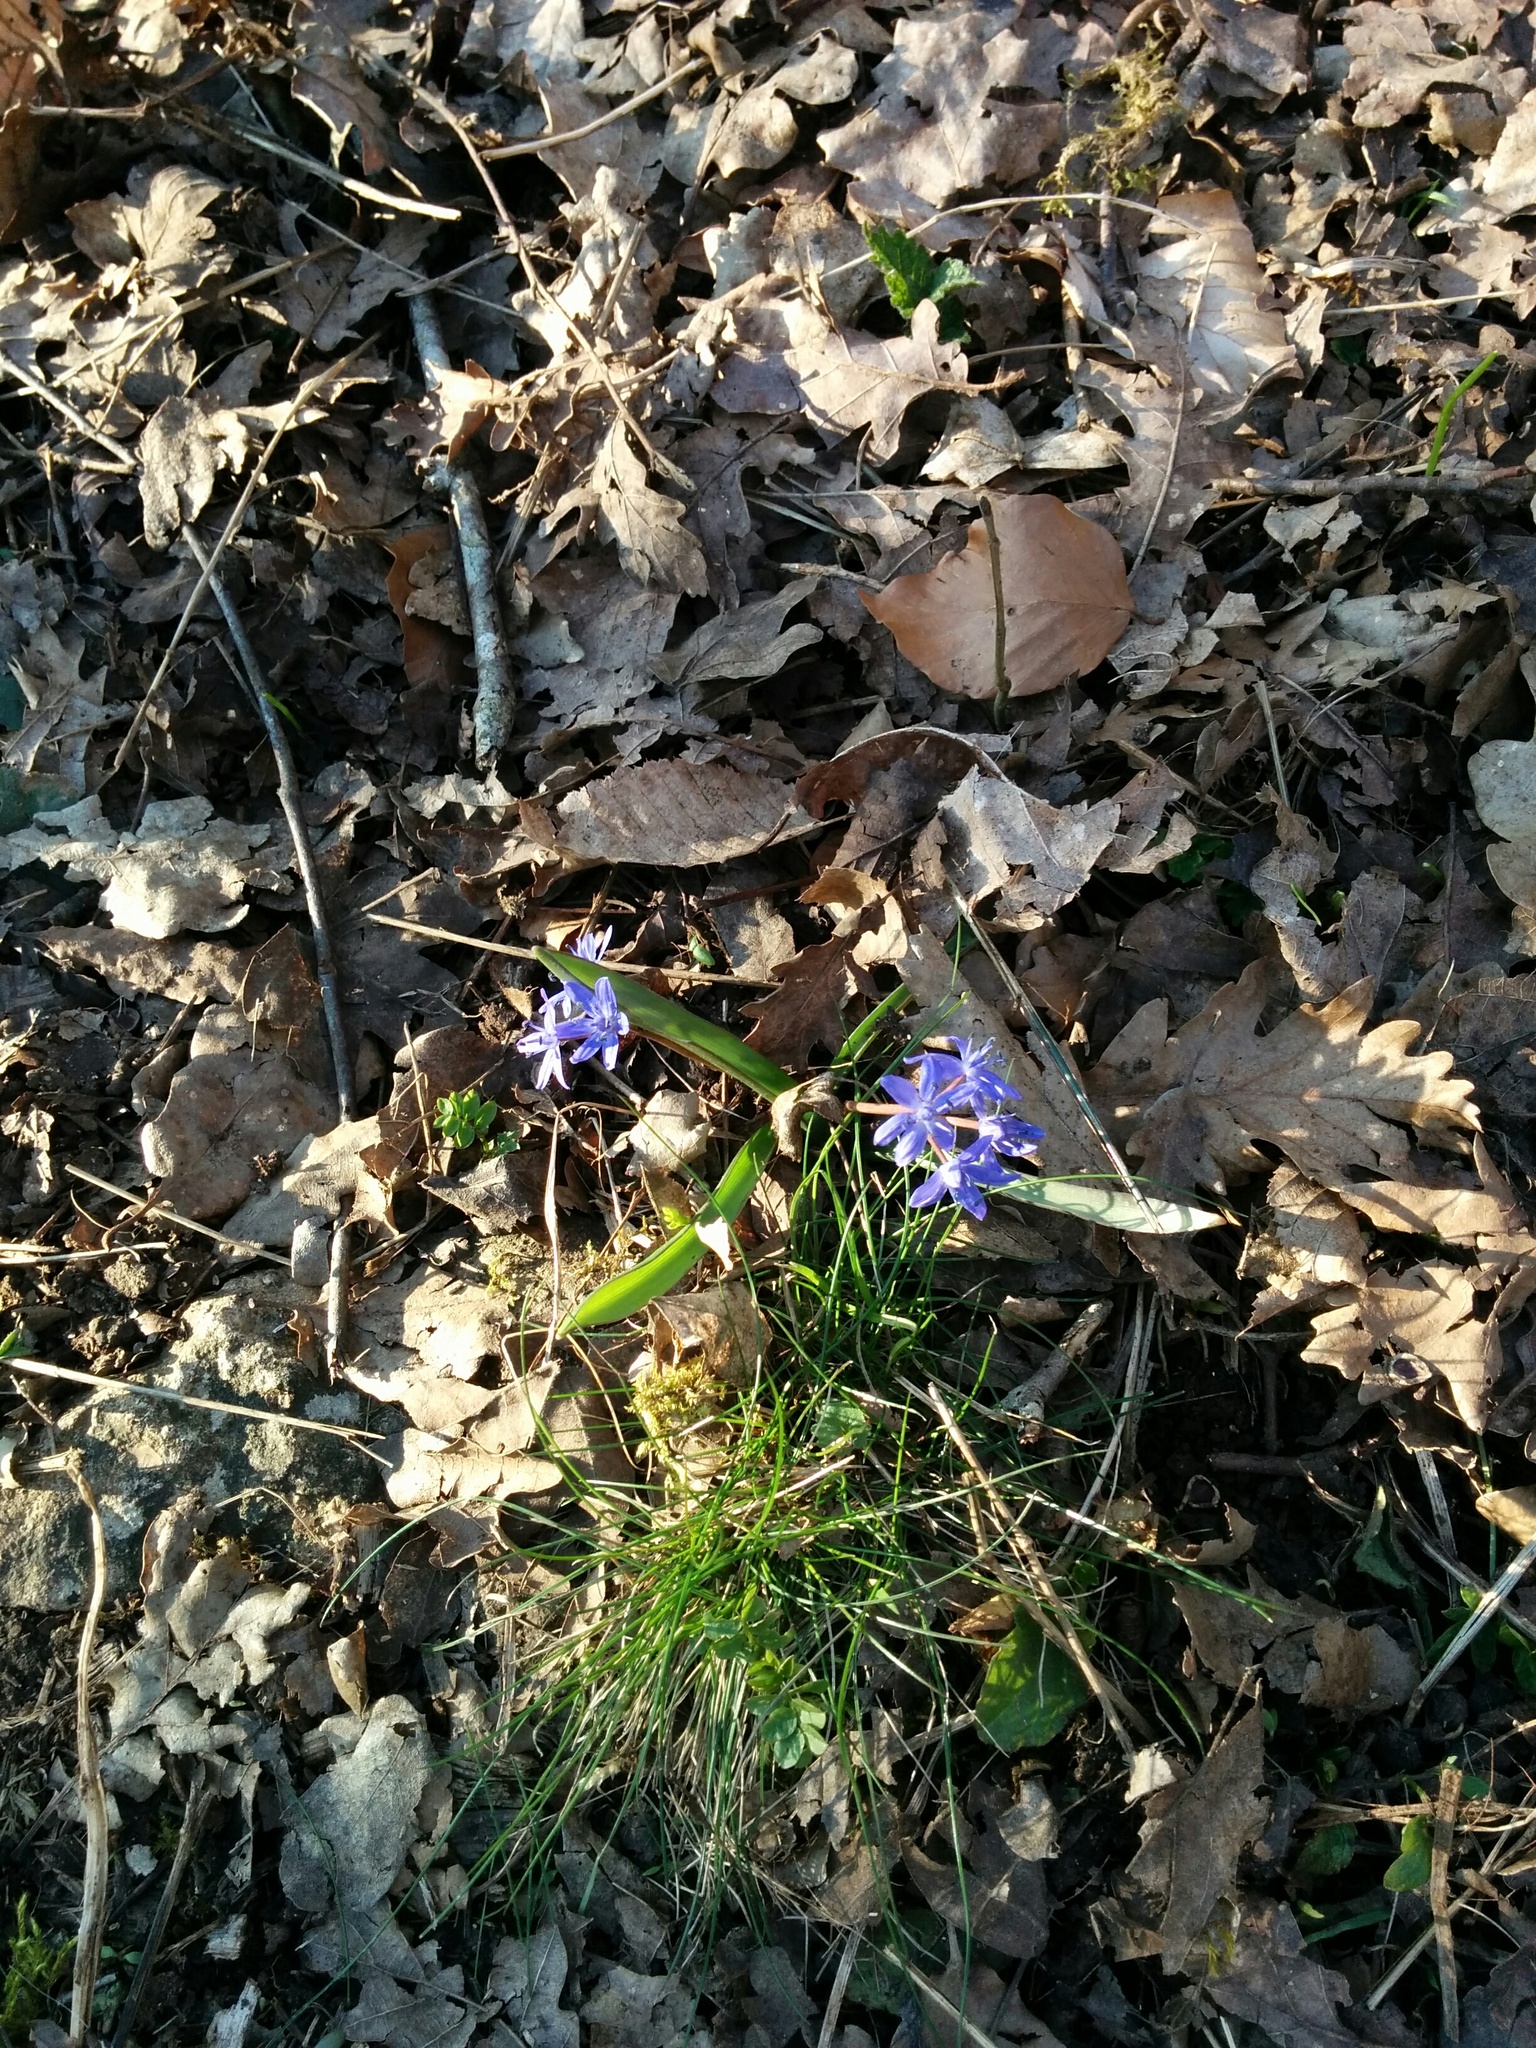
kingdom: Plantae
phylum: Tracheophyta
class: Liliopsida
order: Asparagales
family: Asparagaceae
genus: Scilla
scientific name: Scilla bifolia
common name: Alpine squill
